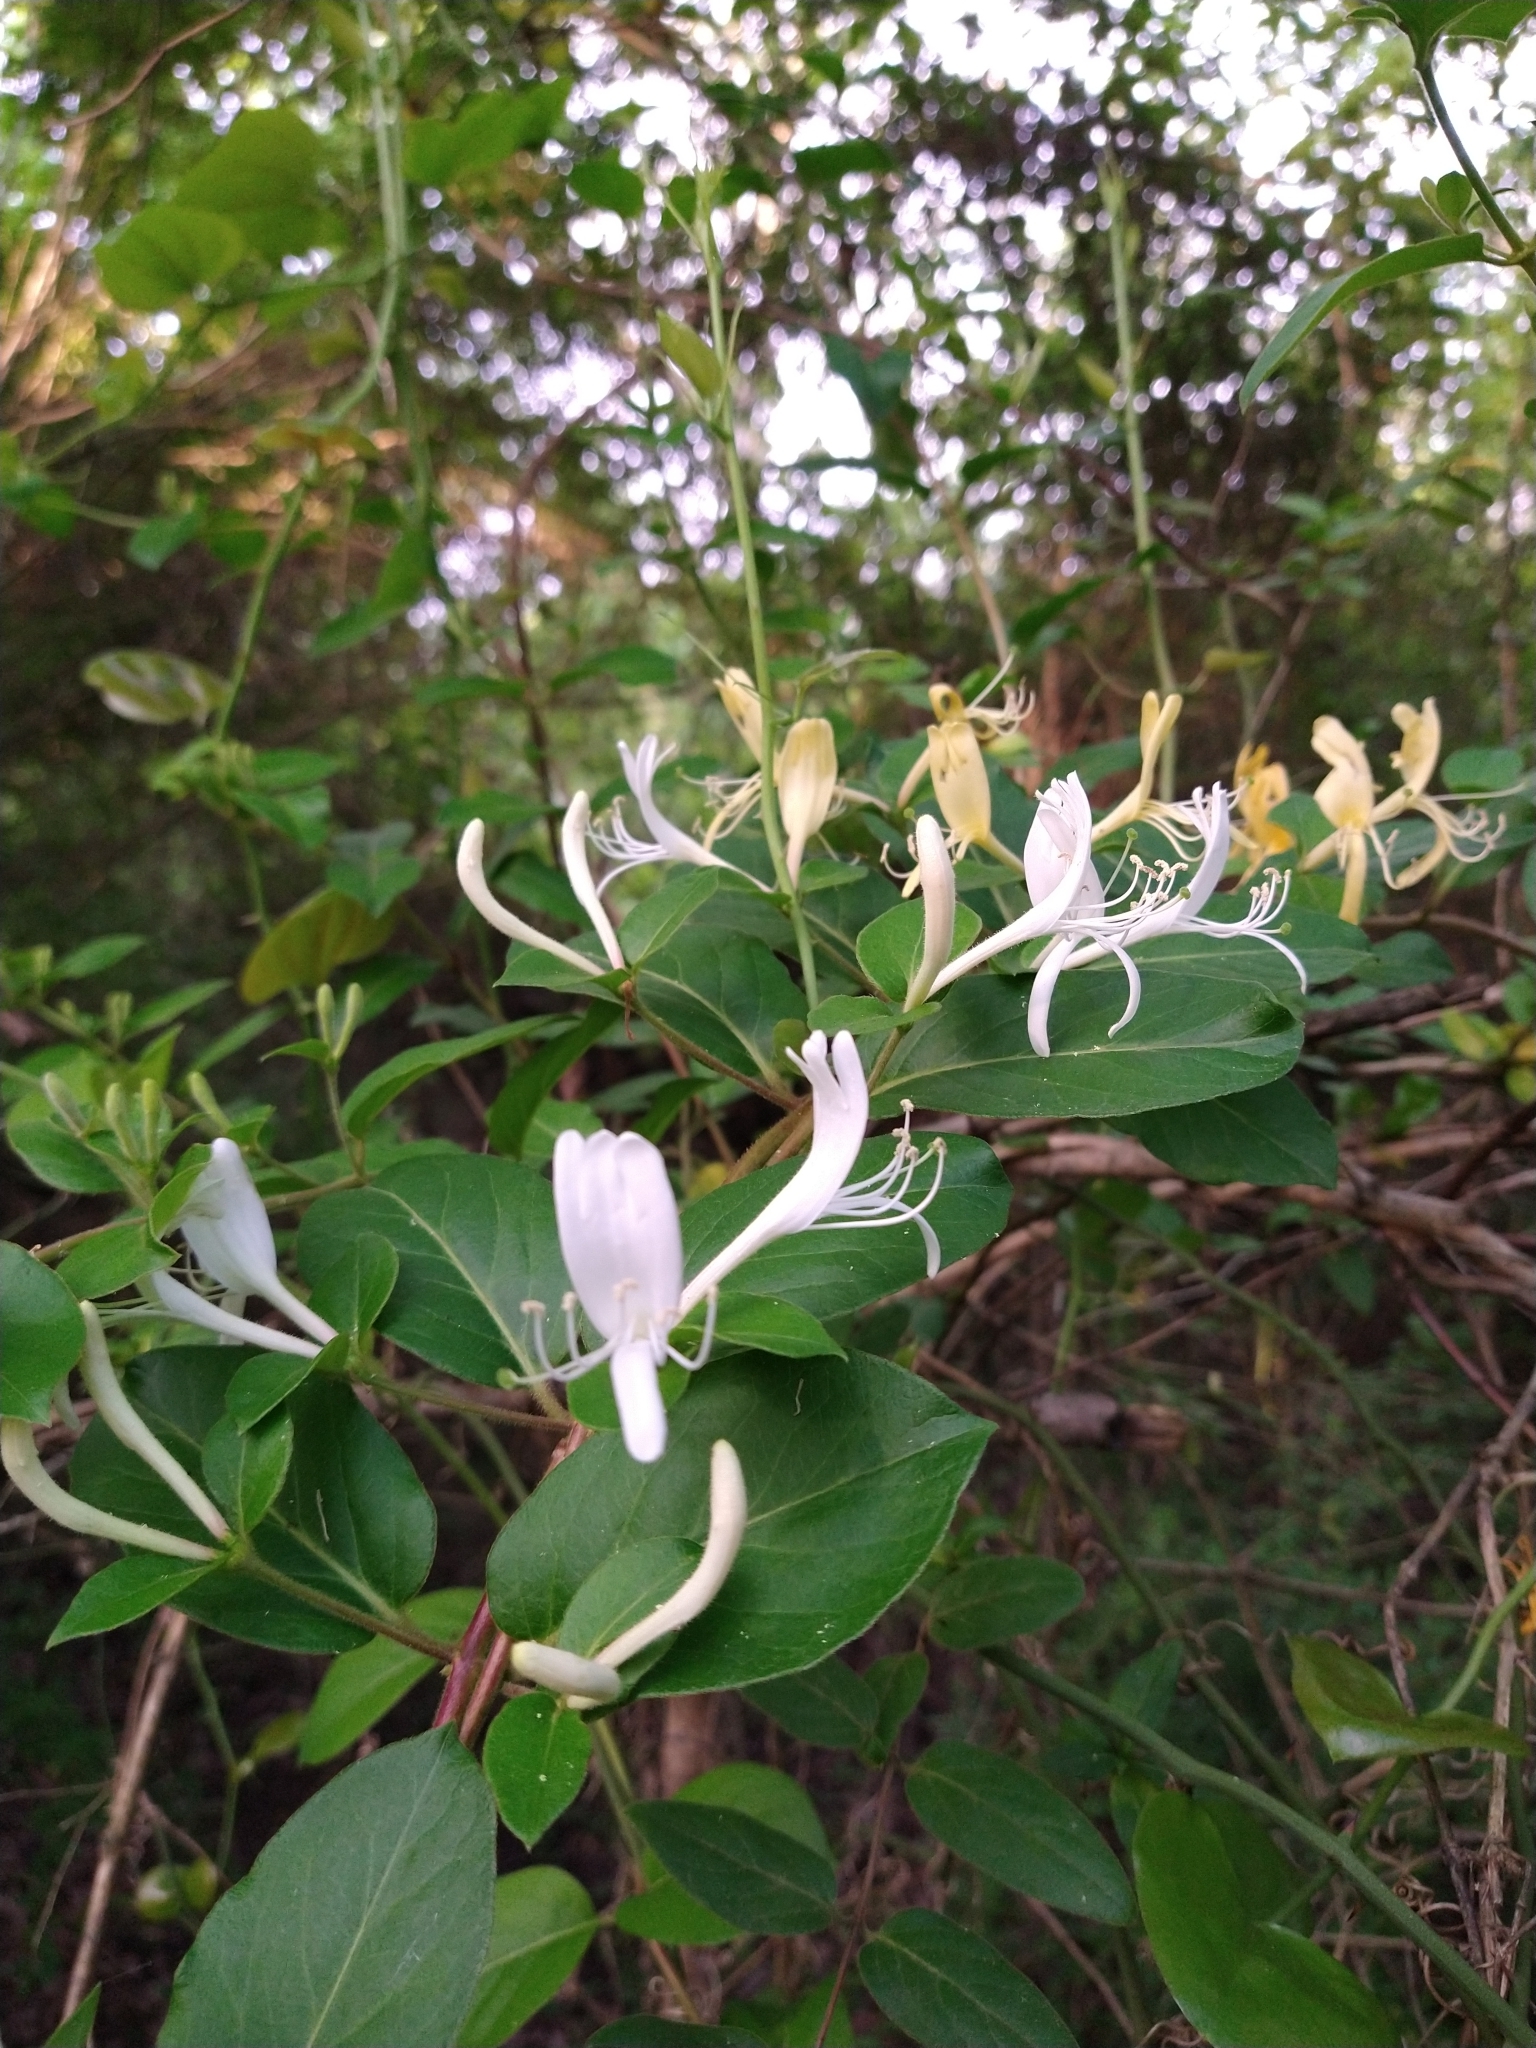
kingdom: Plantae
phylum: Tracheophyta
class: Magnoliopsida
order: Dipsacales
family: Caprifoliaceae
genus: Lonicera
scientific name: Lonicera japonica
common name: Japanese honeysuckle
